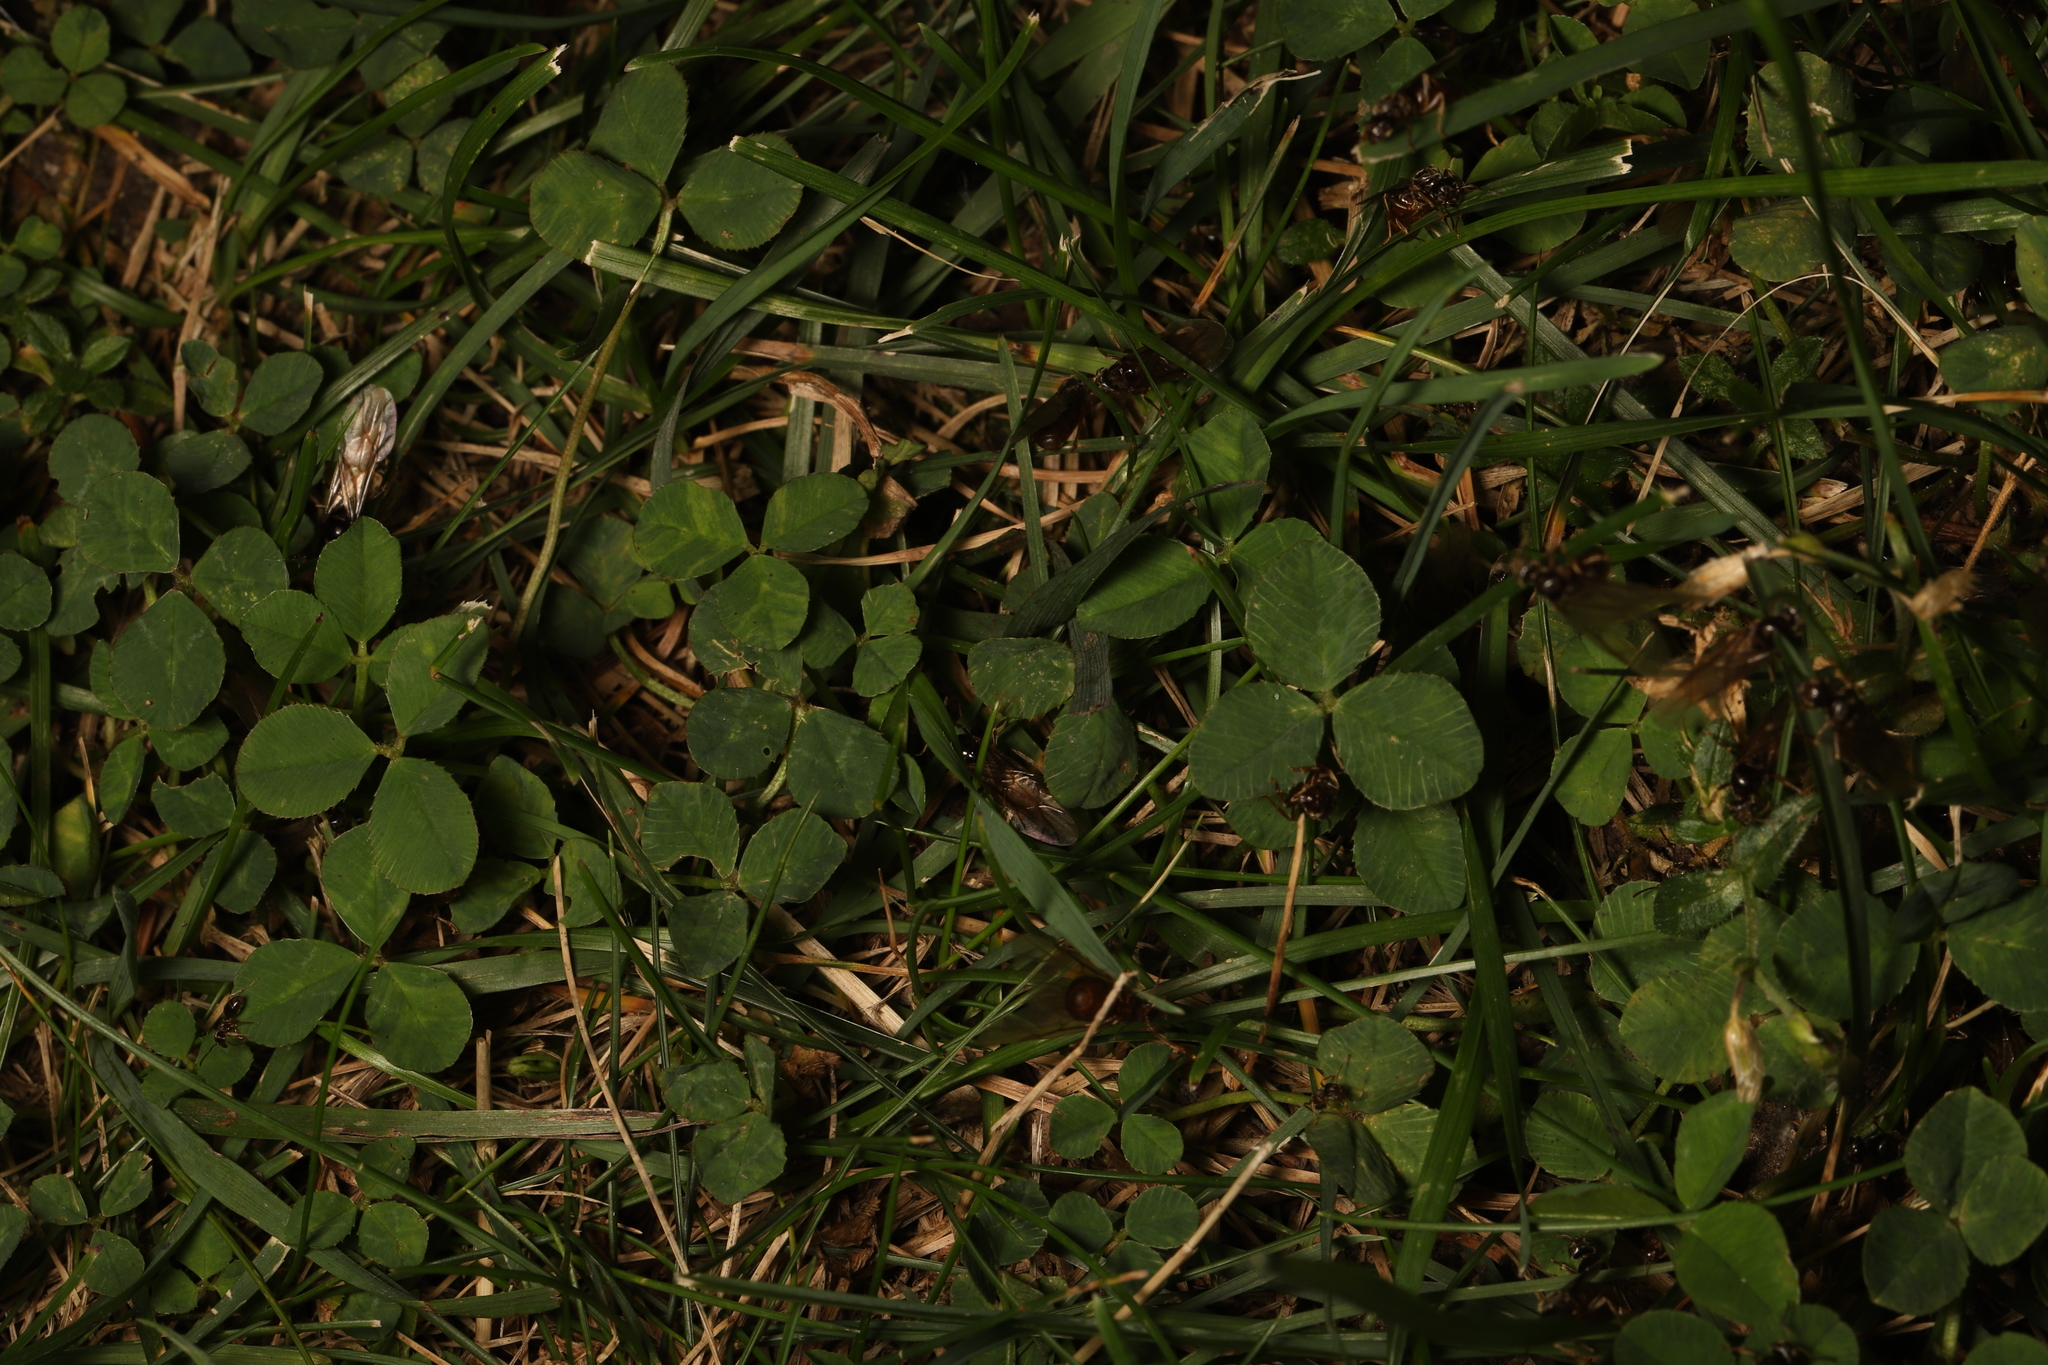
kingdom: Plantae
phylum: Tracheophyta
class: Magnoliopsida
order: Fabales
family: Fabaceae
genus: Trifolium
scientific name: Trifolium repens
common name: White clover
